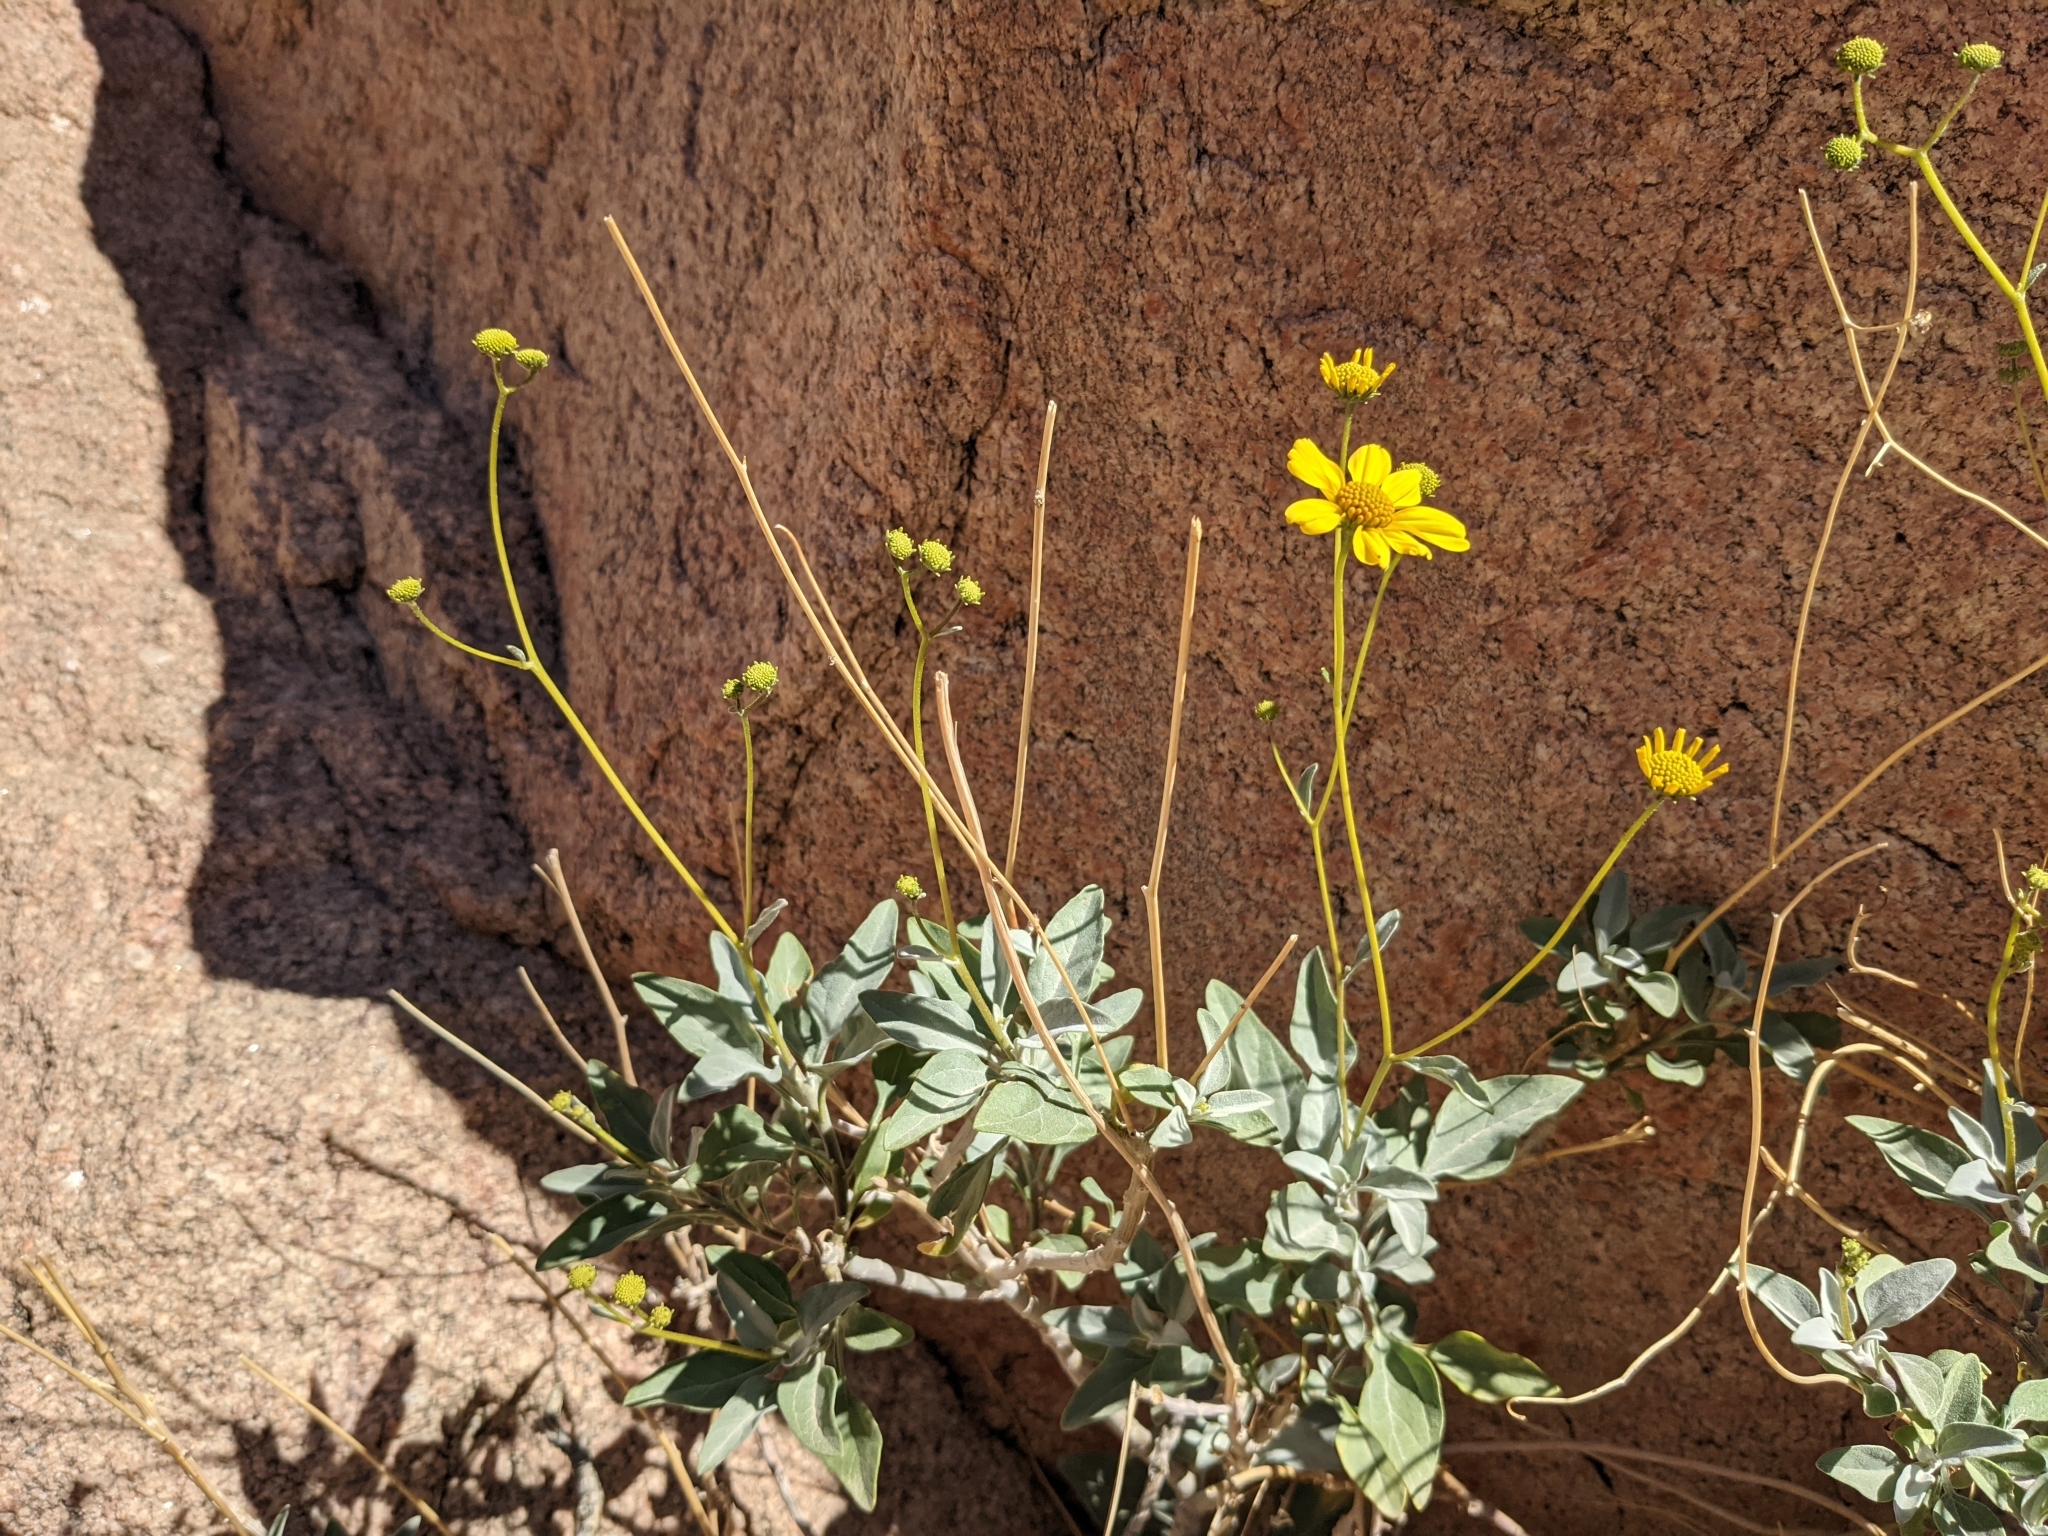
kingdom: Plantae
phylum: Tracheophyta
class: Magnoliopsida
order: Asterales
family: Asteraceae
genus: Encelia
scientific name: Encelia farinosa
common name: Brittlebush
